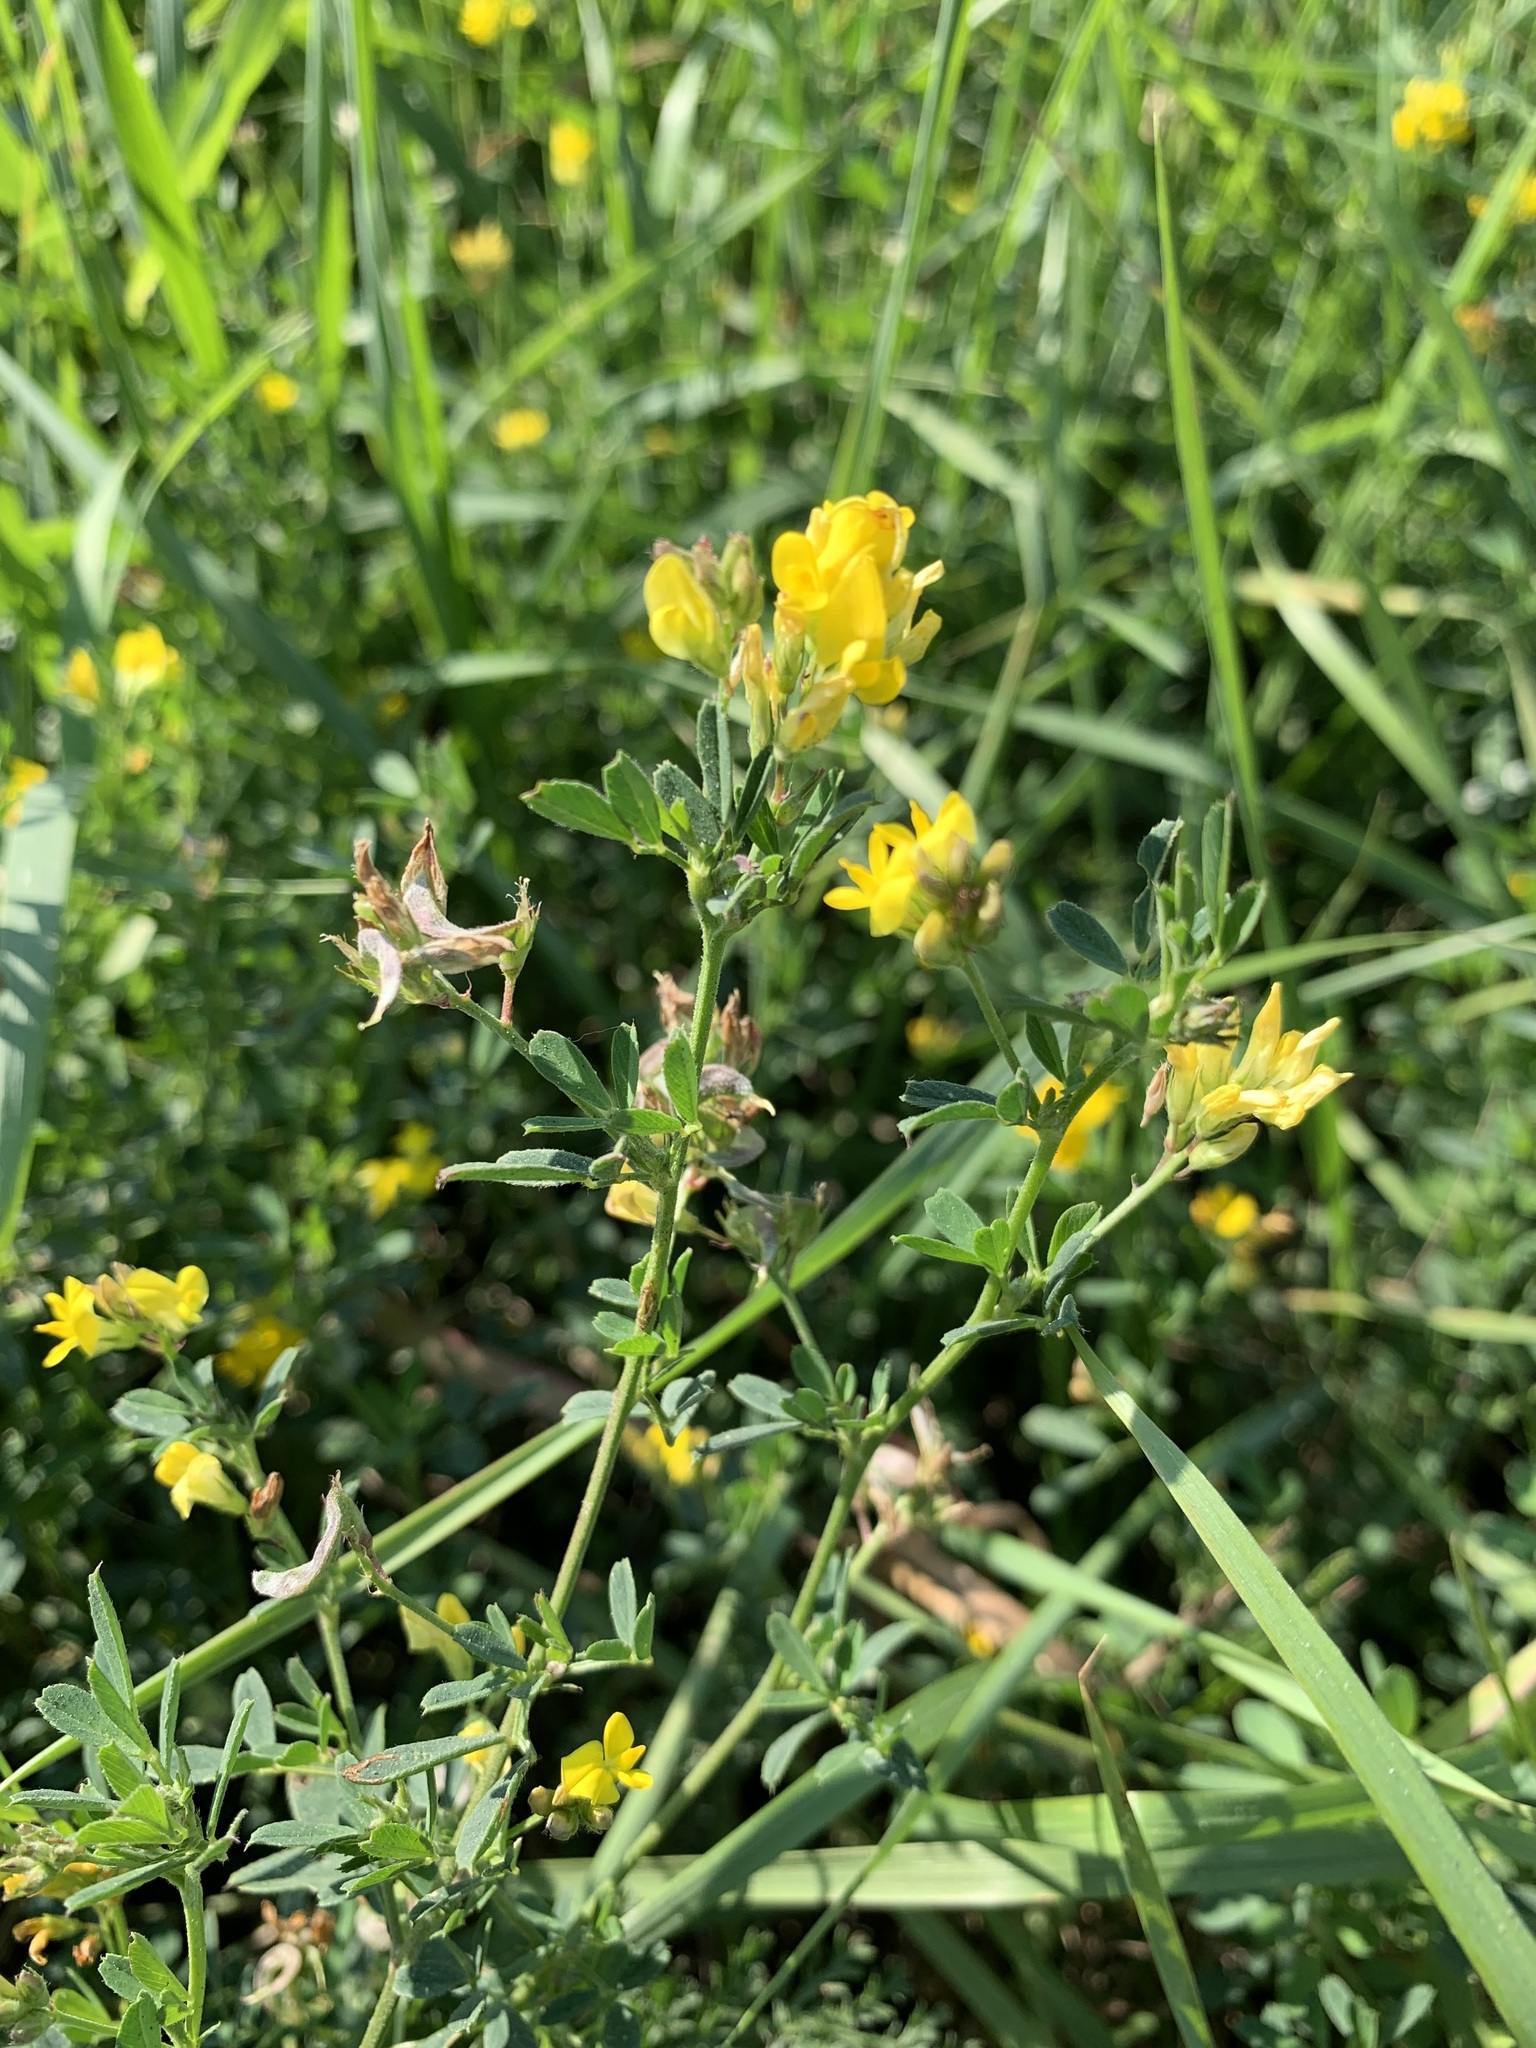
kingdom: Plantae
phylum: Tracheophyta
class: Magnoliopsida
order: Fabales
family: Fabaceae
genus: Medicago
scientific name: Medicago falcata
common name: Sickle medick
